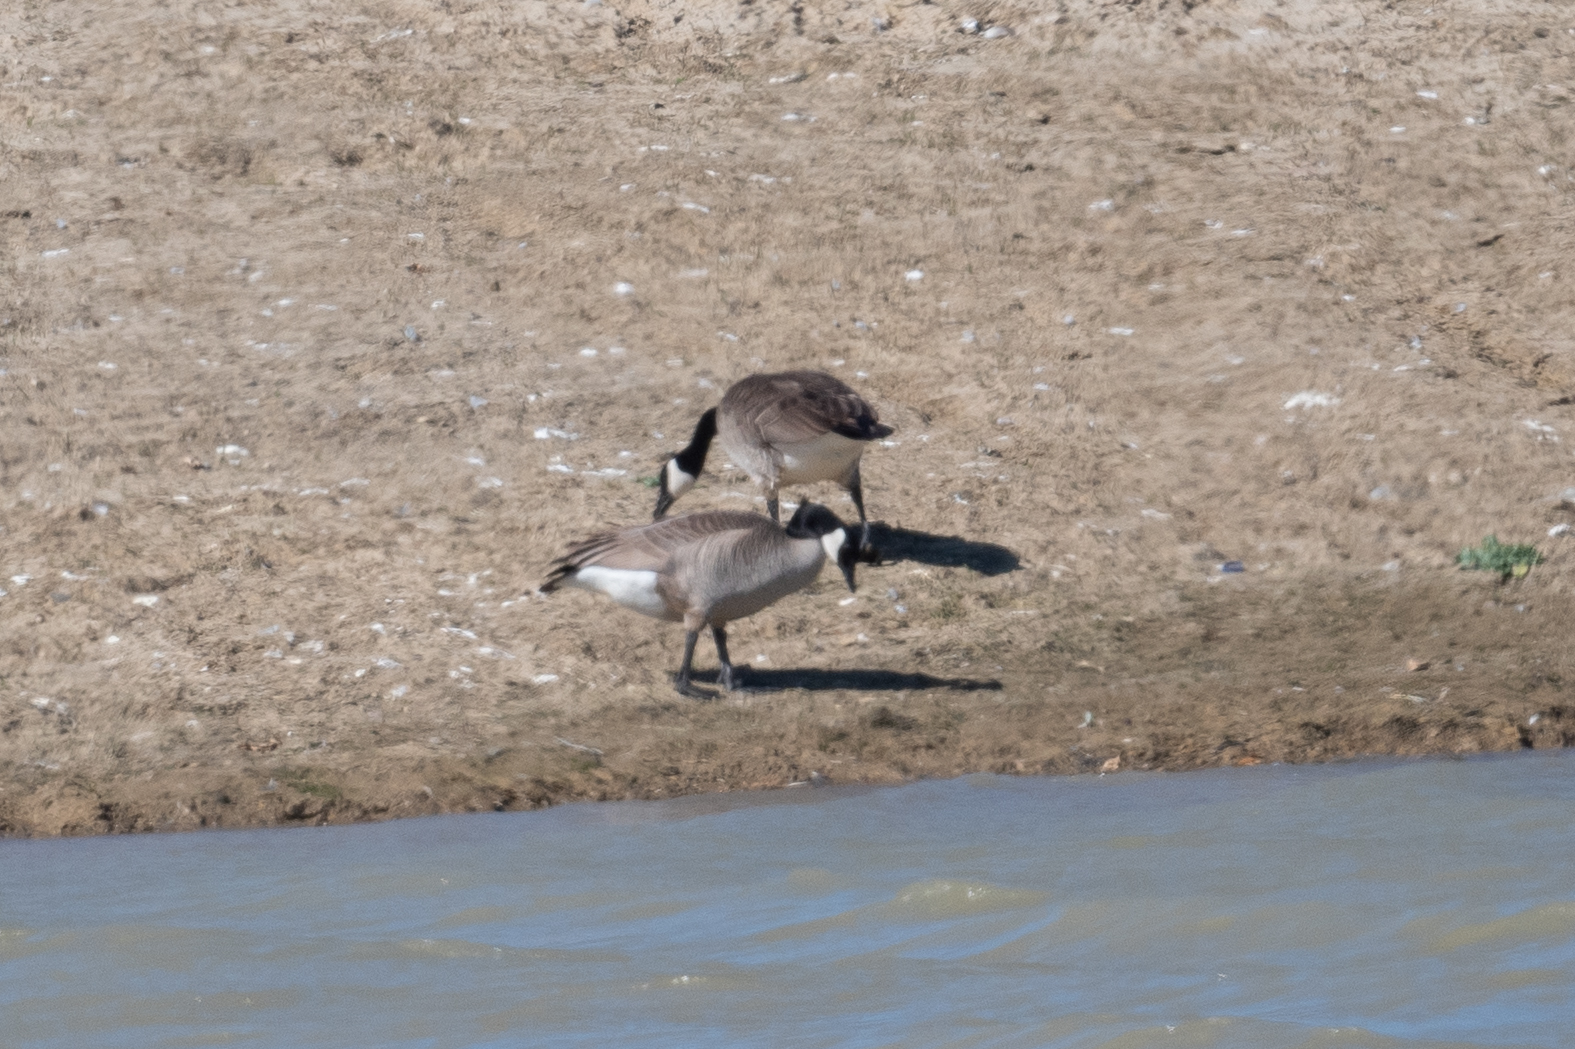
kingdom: Animalia
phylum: Chordata
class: Aves
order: Anseriformes
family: Anatidae
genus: Branta
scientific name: Branta canadensis
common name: Canada goose
